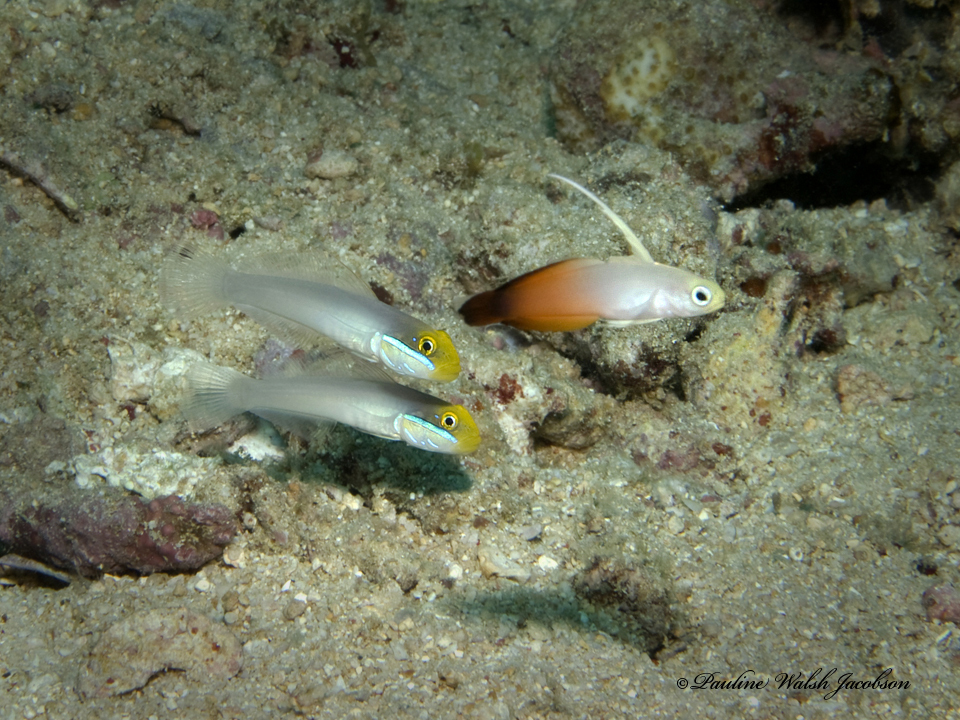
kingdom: Animalia
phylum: Chordata
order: Perciformes
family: Microdesmidae
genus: Nemateleotris
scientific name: Nemateleotris magnifica
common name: Fire goby
